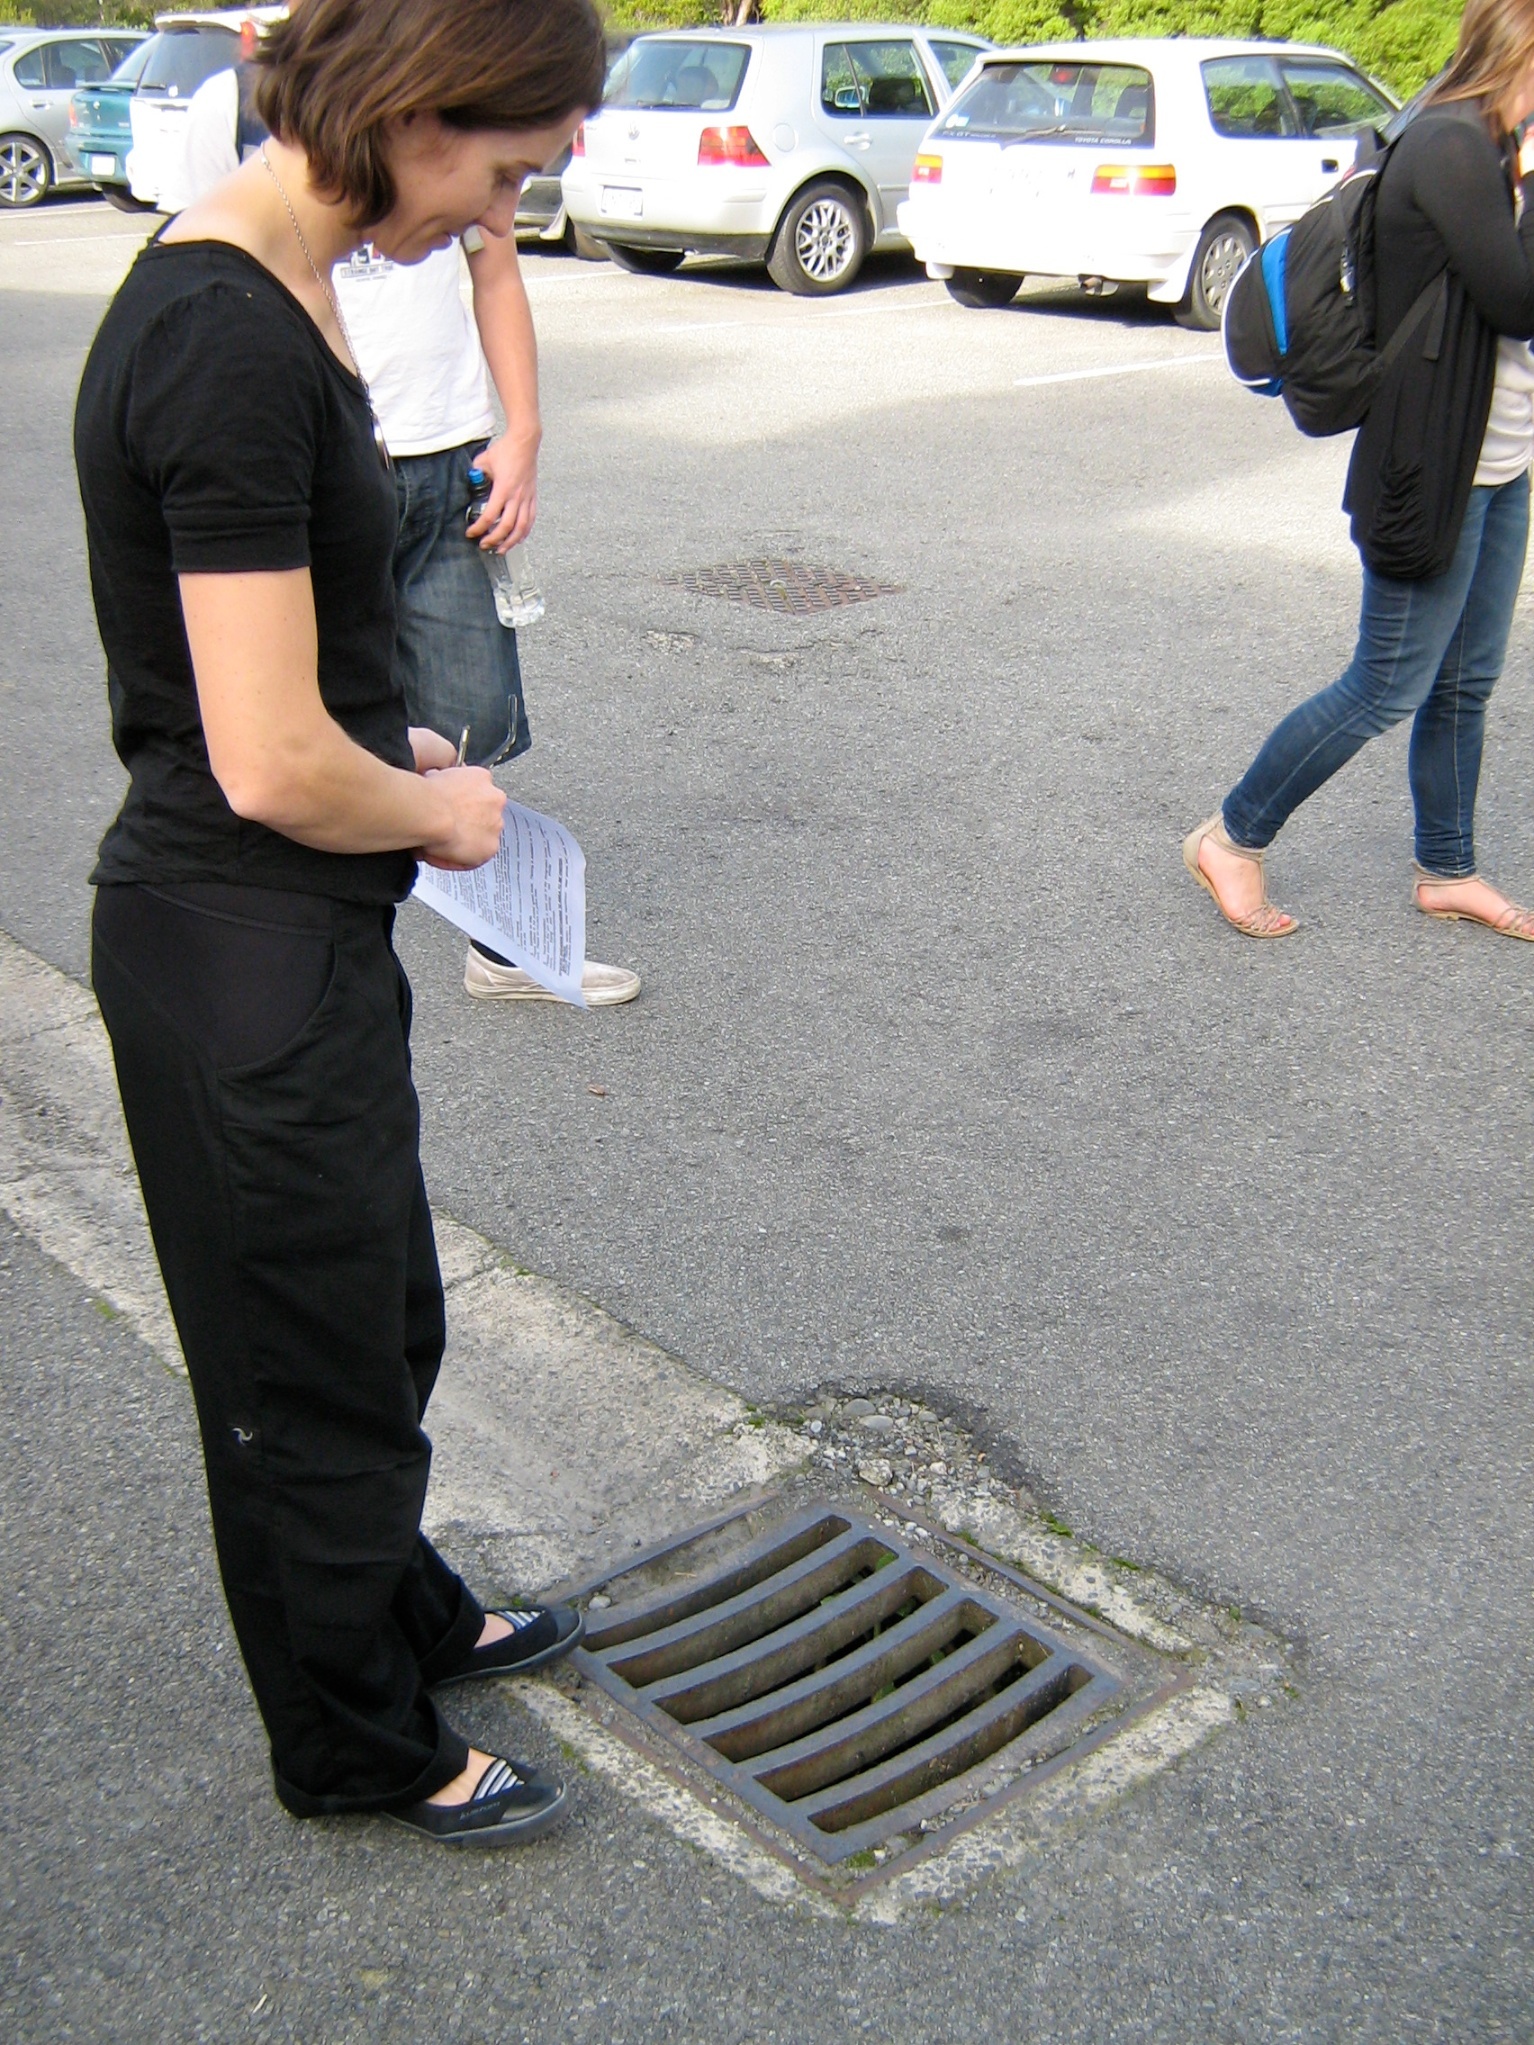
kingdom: Plantae
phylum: Tracheophyta
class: Magnoliopsida
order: Asterales
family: Asteraceae
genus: Sonchus
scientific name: Sonchus kirkii
